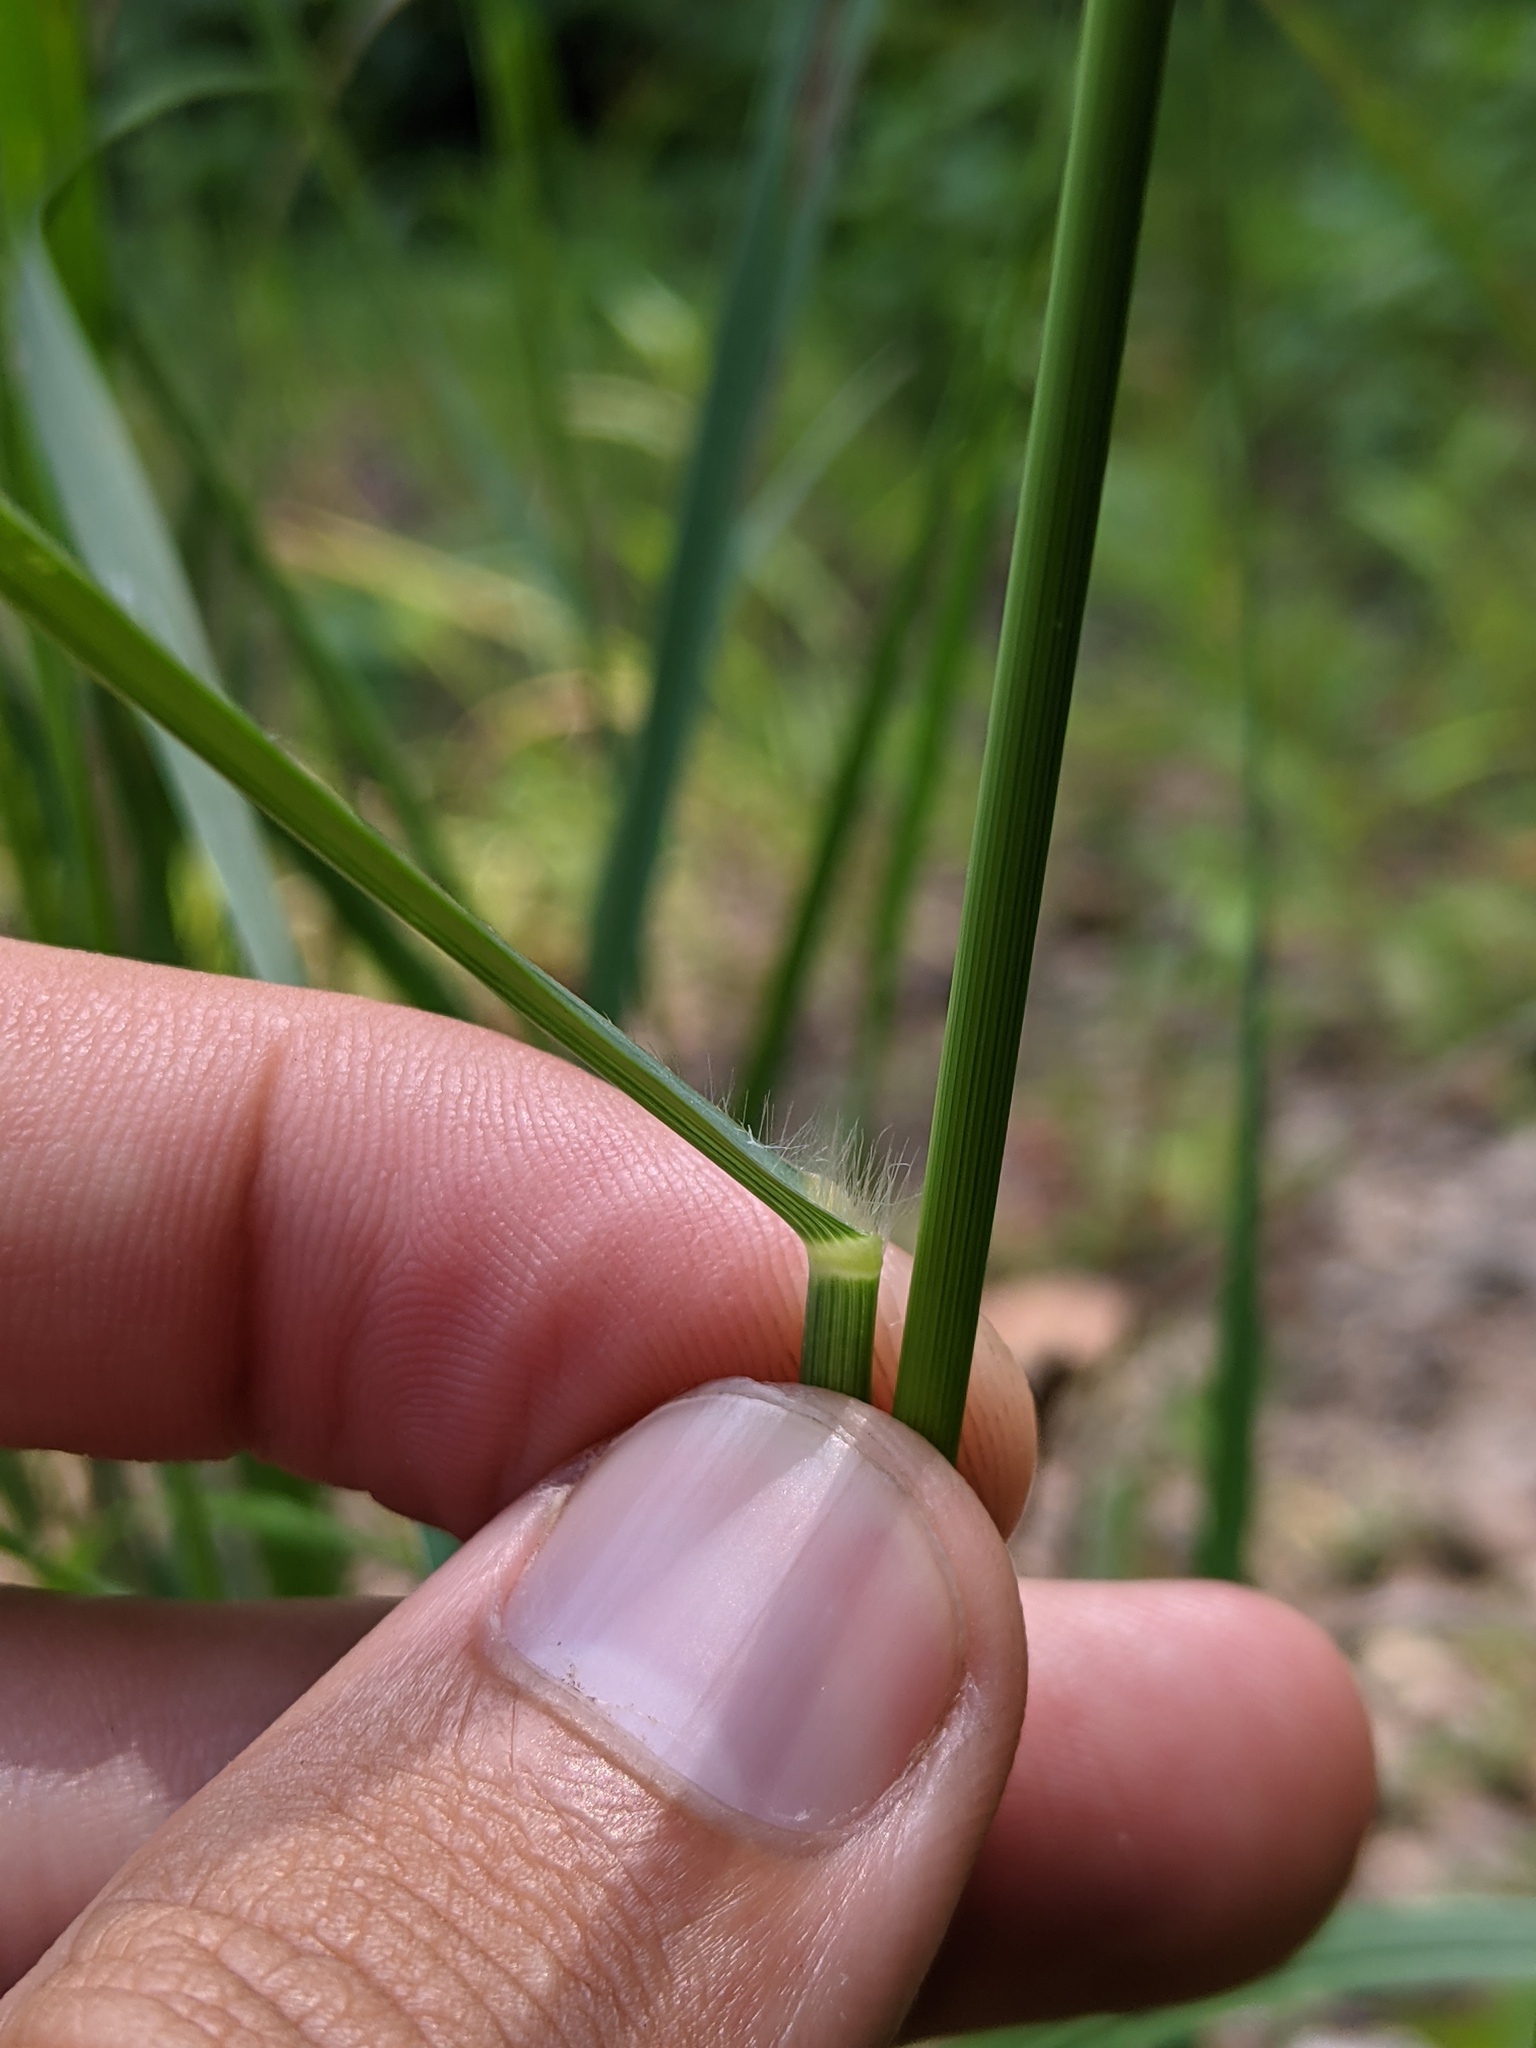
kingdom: Plantae
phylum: Tracheophyta
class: Liliopsida
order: Poales
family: Poaceae
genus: Panicum
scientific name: Panicum virgatum
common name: Switchgrass
